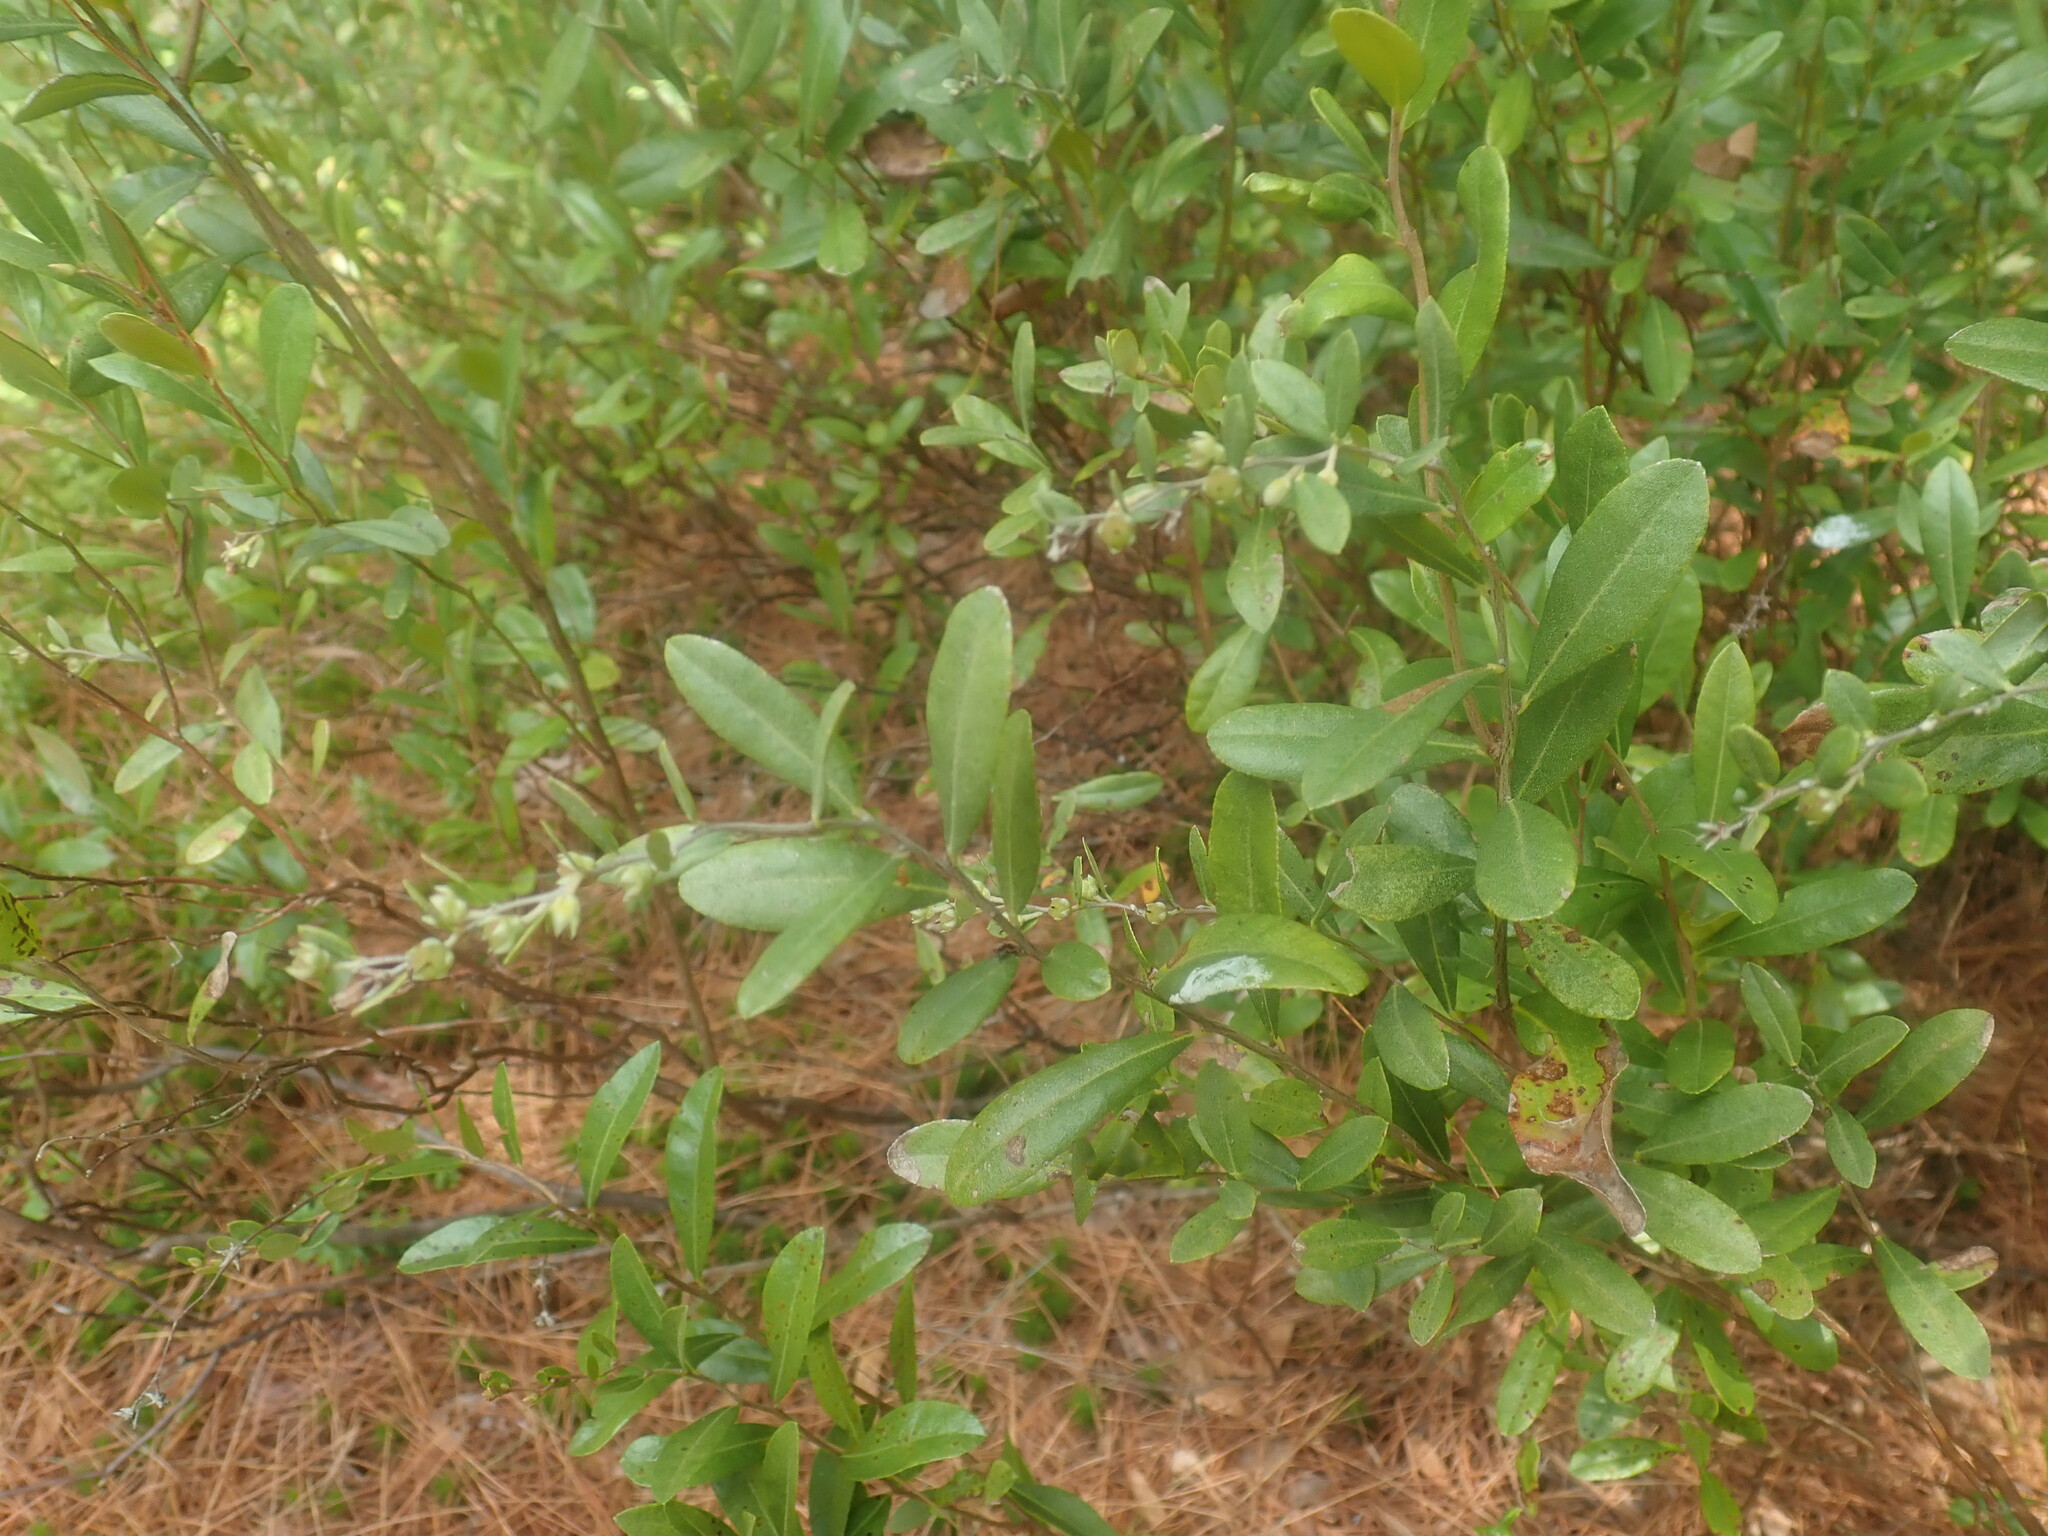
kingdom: Plantae
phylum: Tracheophyta
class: Magnoliopsida
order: Ericales
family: Ericaceae
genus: Chamaedaphne
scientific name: Chamaedaphne calyculata
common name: Leatherleaf
